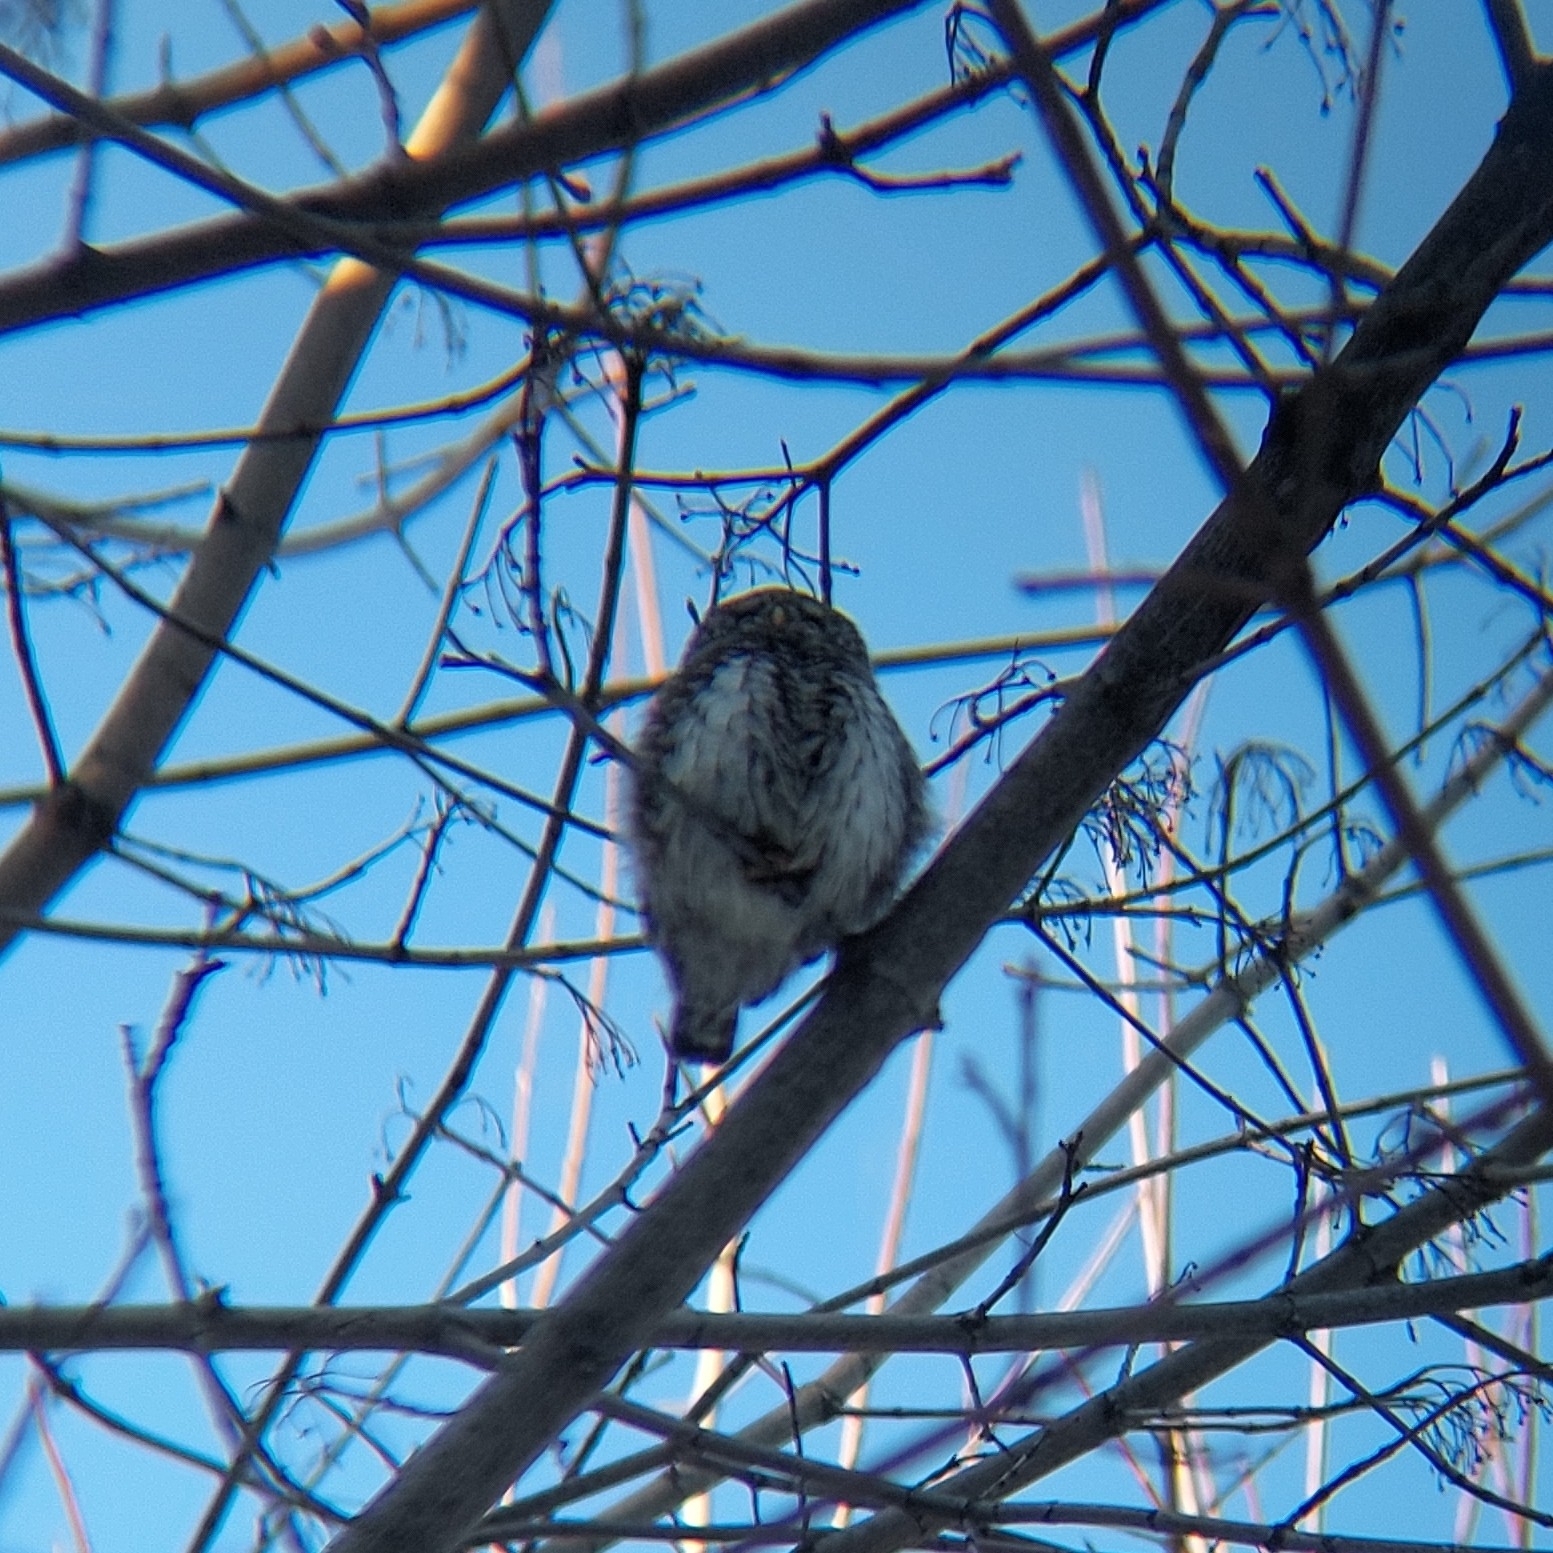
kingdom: Animalia
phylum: Chordata
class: Aves
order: Strigiformes
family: Strigidae
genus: Glaucidium
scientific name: Glaucidium passerinum
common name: Eurasian pygmy owl
